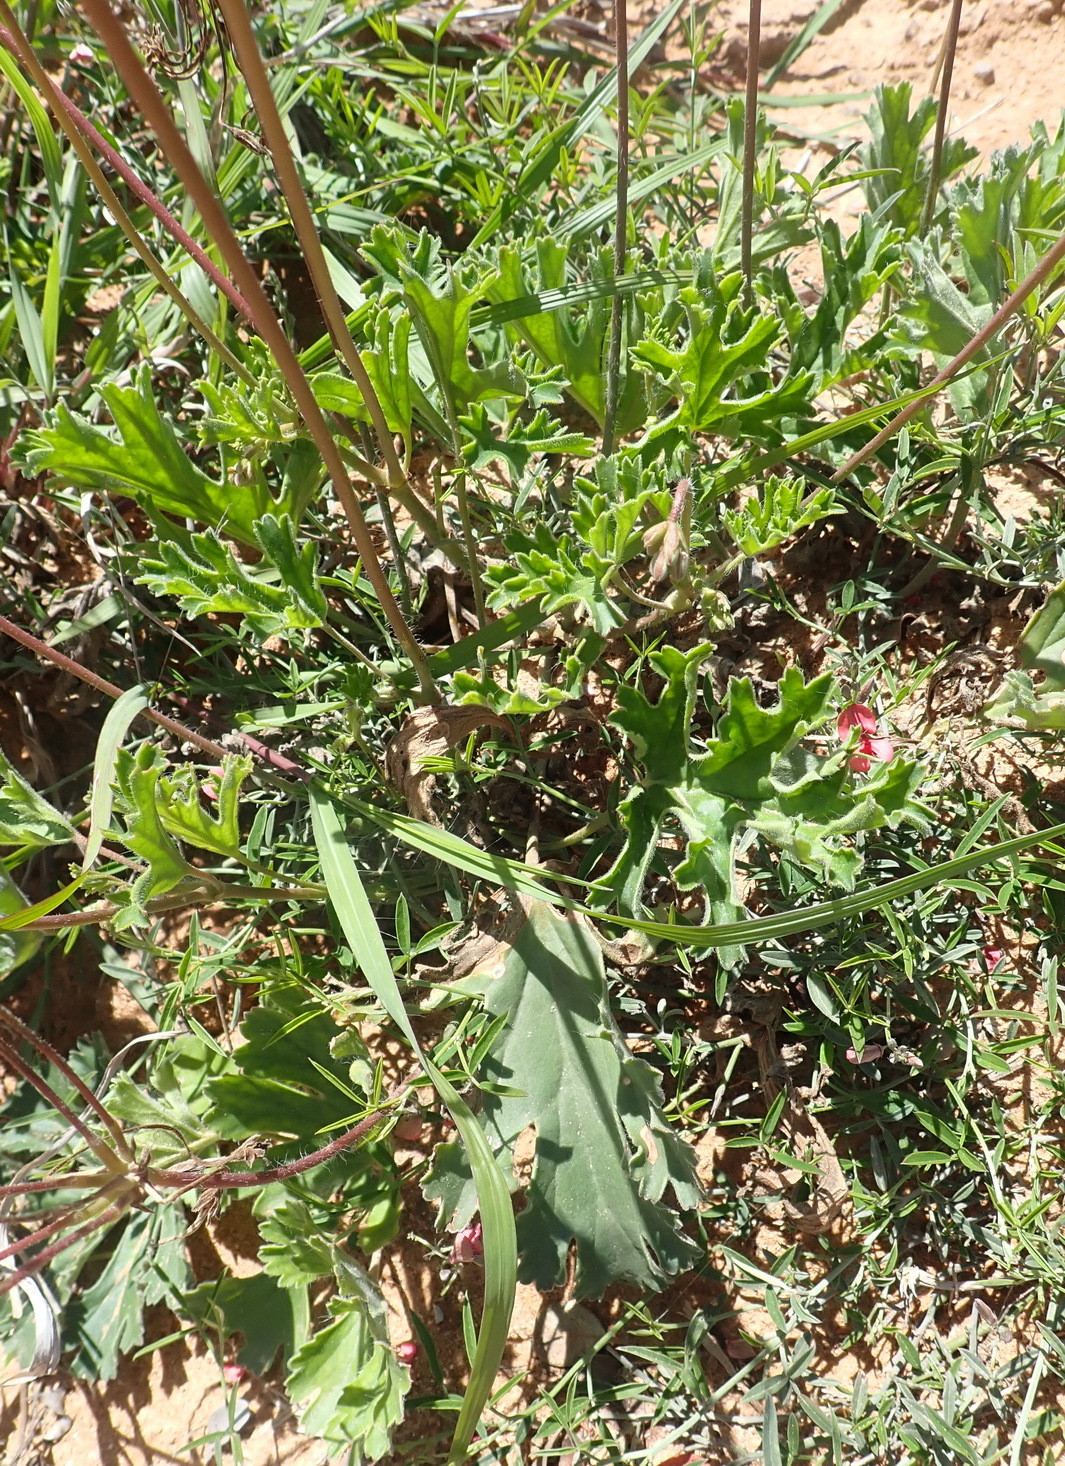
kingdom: Plantae
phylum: Tracheophyta
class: Magnoliopsida
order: Geraniales
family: Geraniaceae
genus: Pelargonium
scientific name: Pelargonium pulverulentum
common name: Powdered-leaf pelargonium
